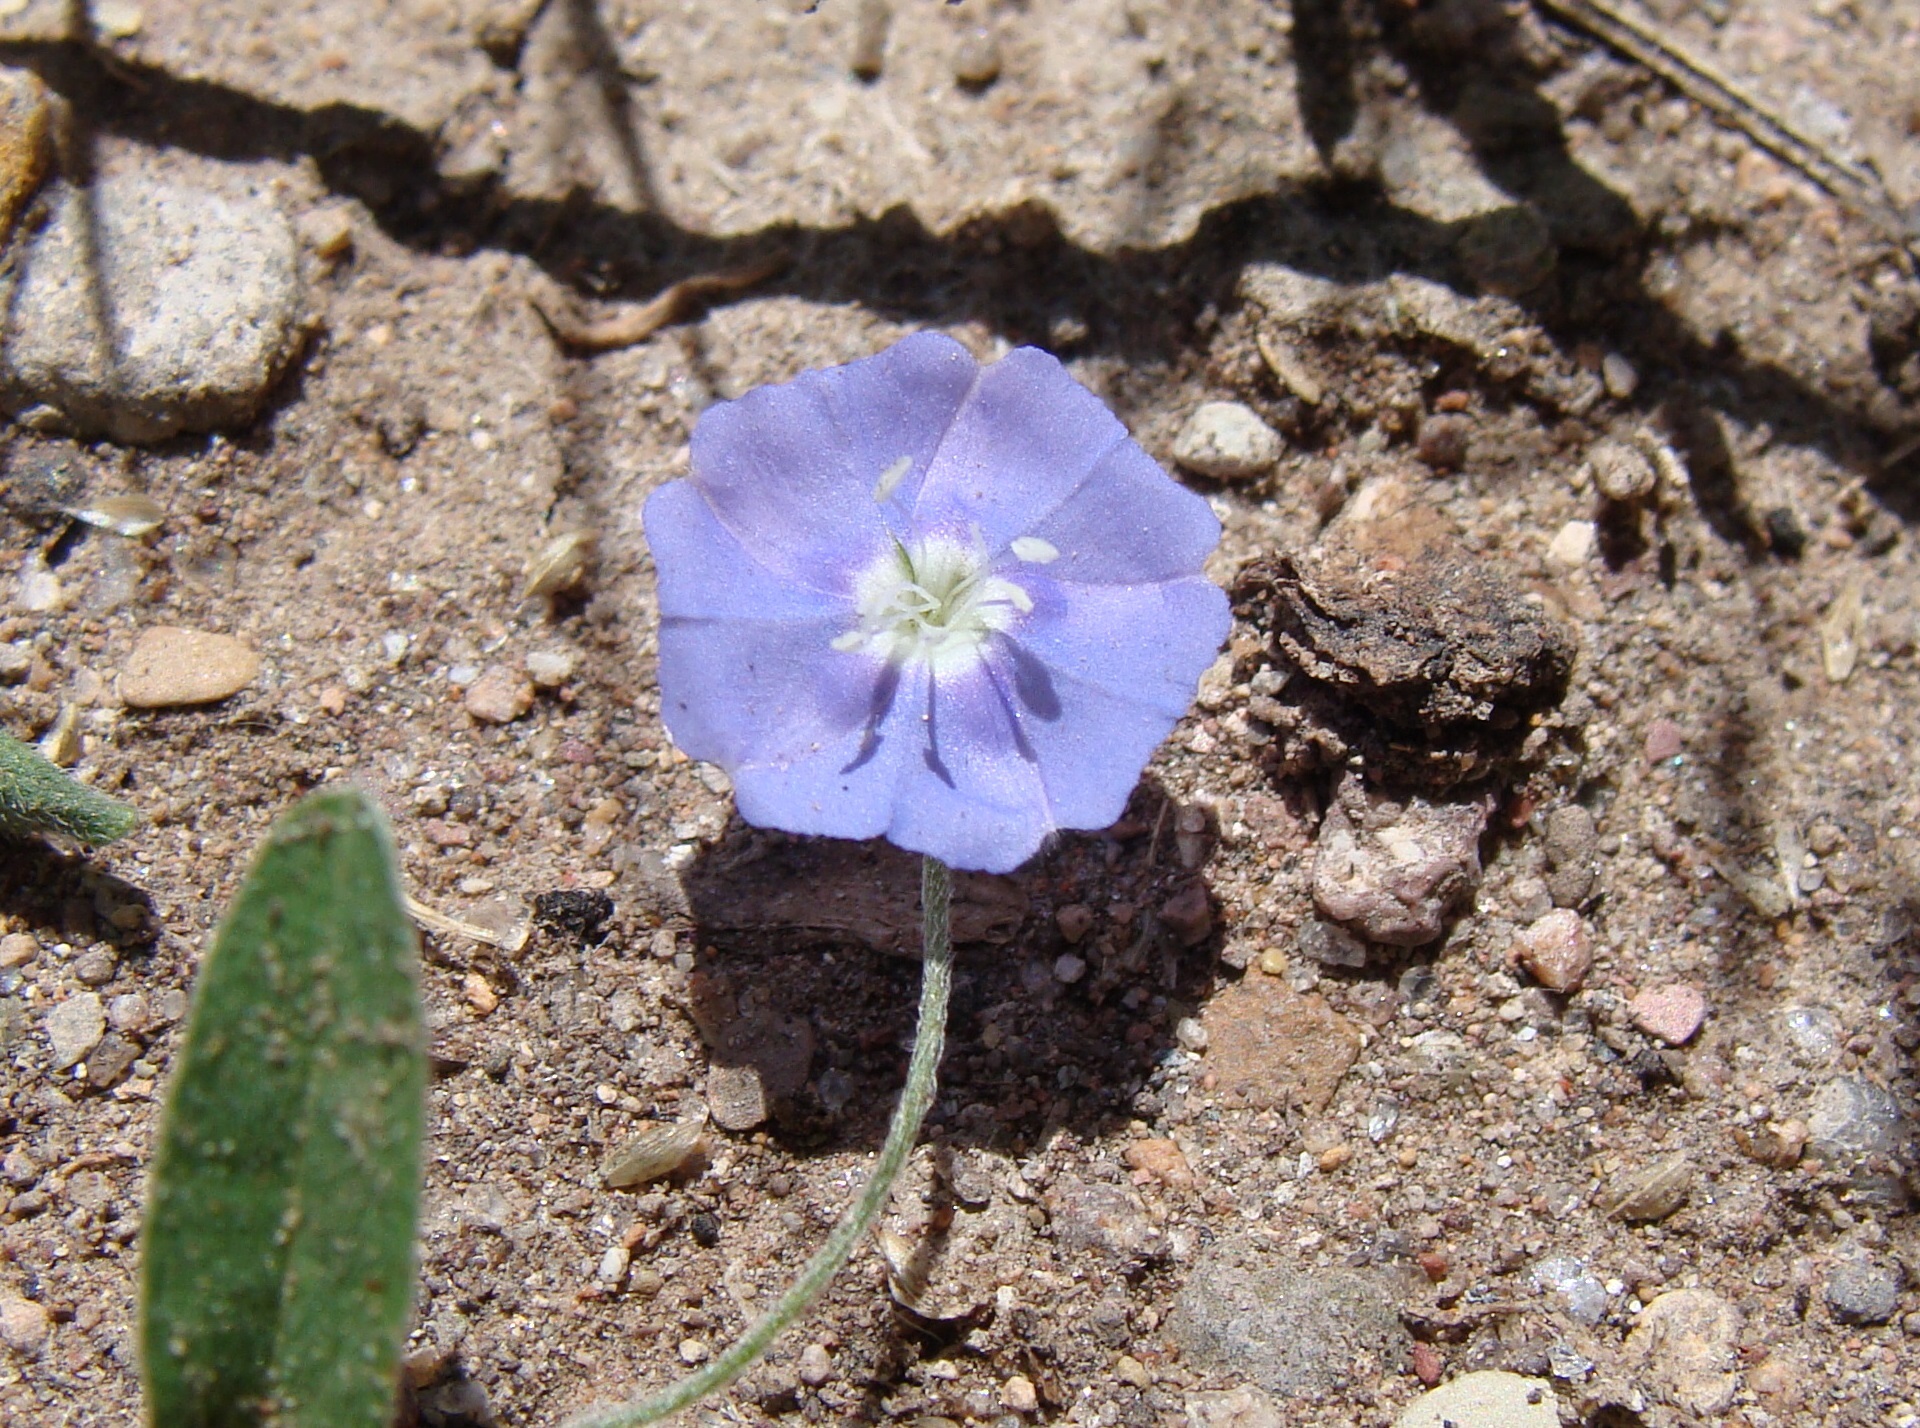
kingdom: Plantae
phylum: Tracheophyta
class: Magnoliopsida
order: Solanales
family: Convolvulaceae
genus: Evolvulus
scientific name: Evolvulus alsinoides
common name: Slender dwarf morning-glory
